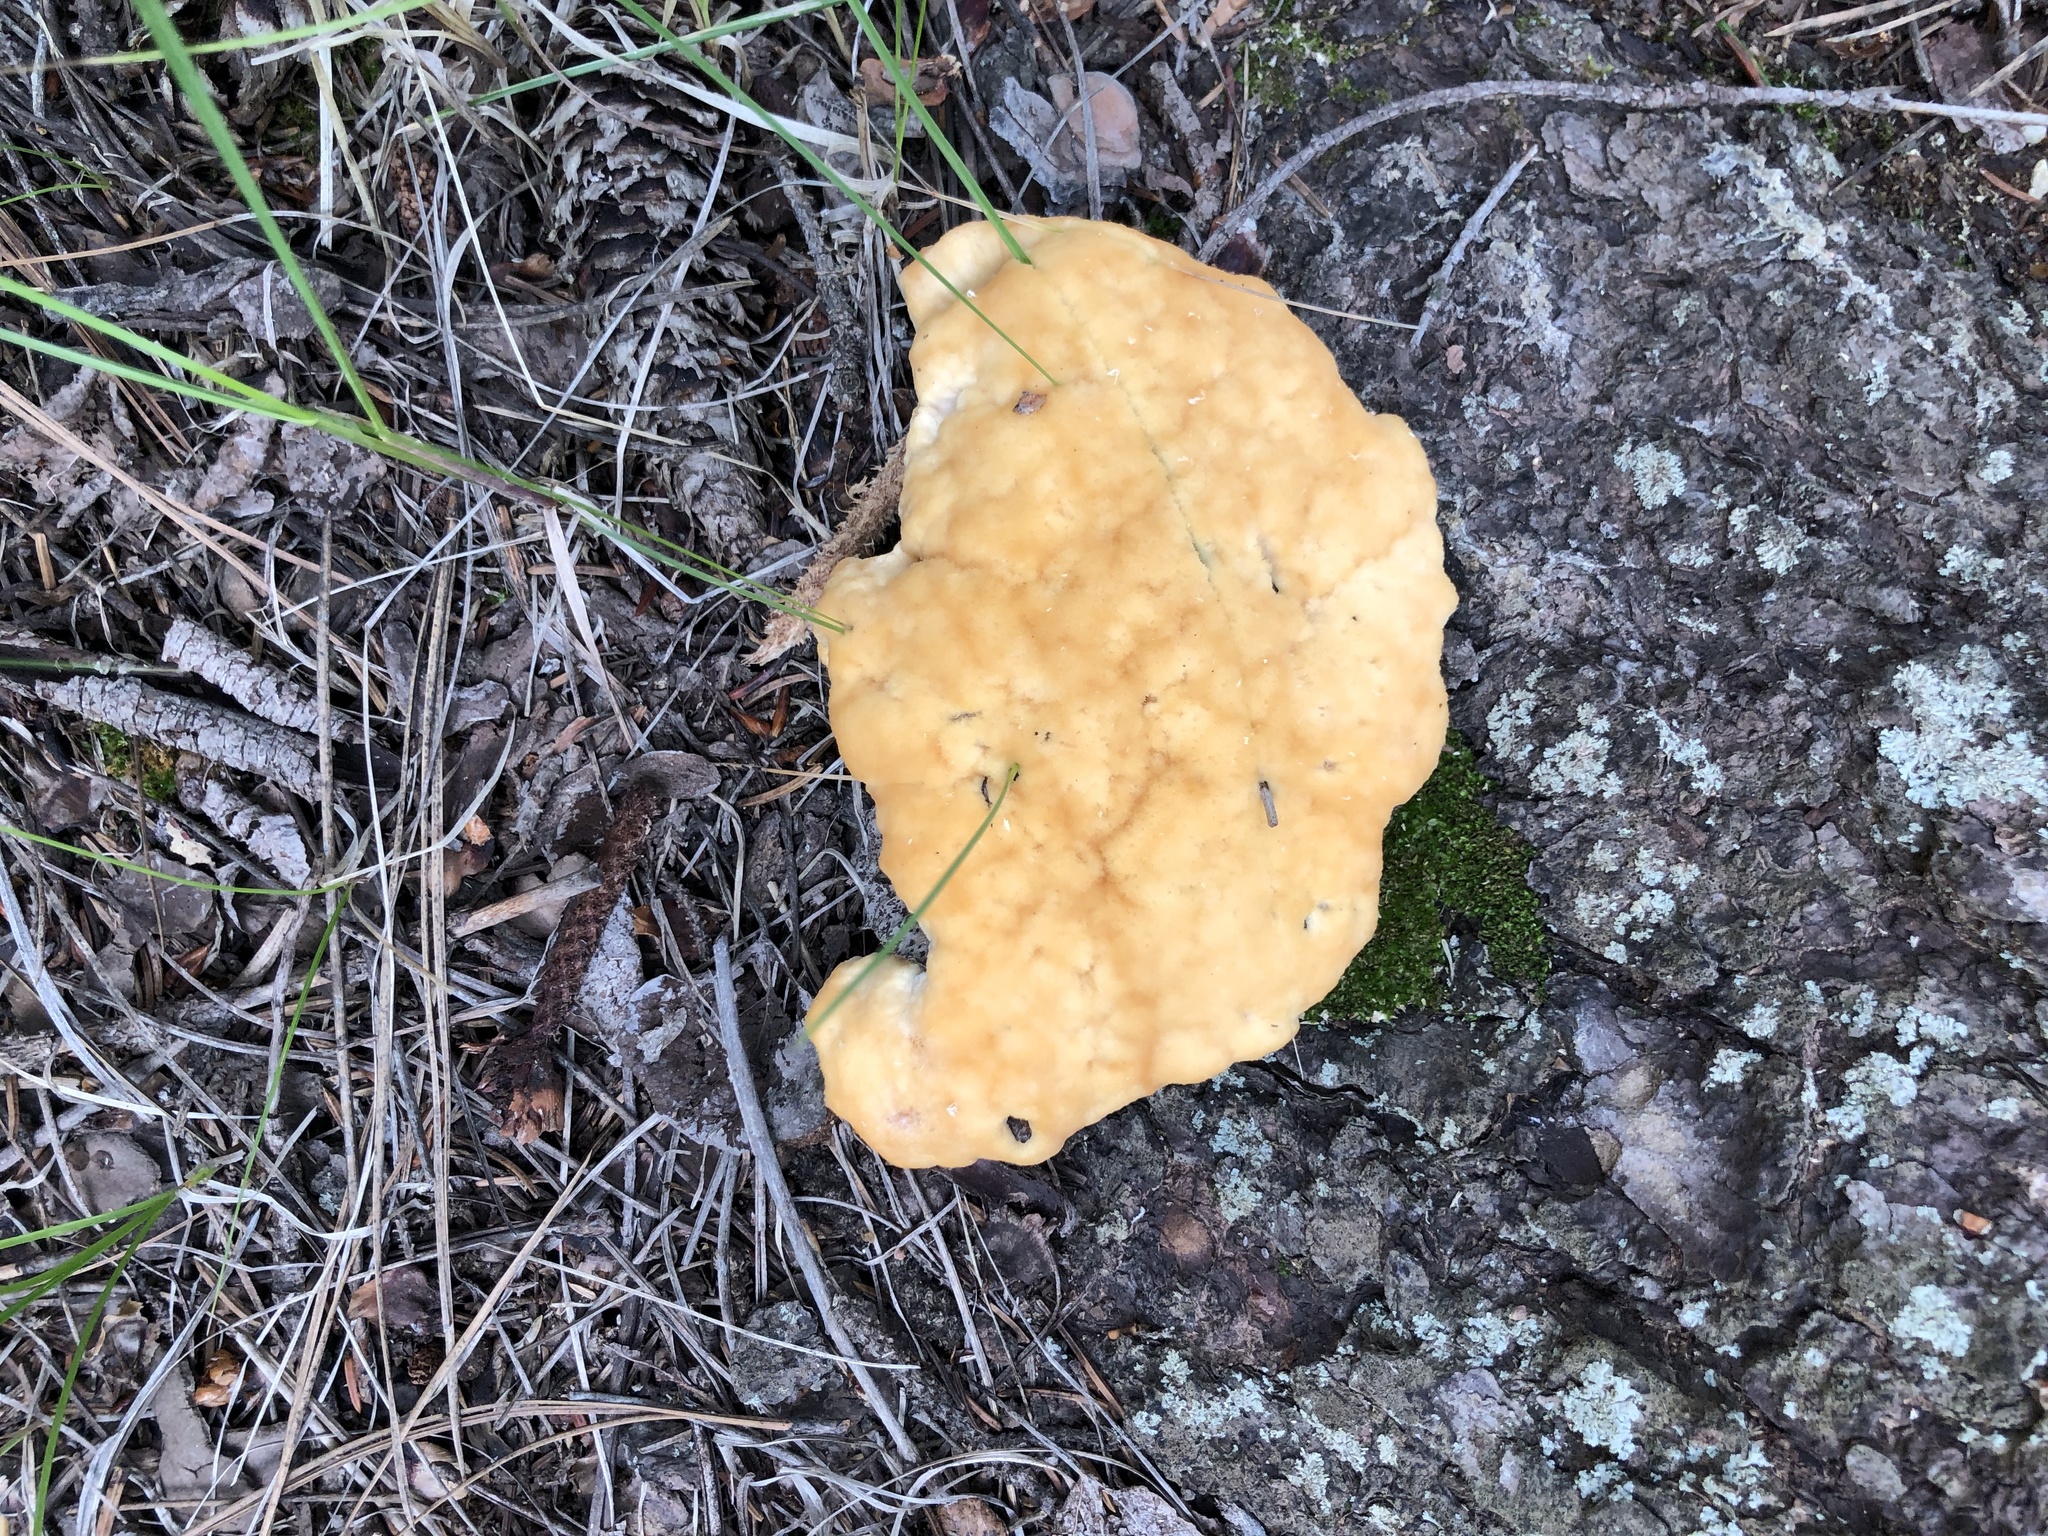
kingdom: Fungi
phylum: Basidiomycota
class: Agaricomycetes
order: Polyporales
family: Fomitopsidaceae
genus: Climacocystis
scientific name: Climacocystis borealis
